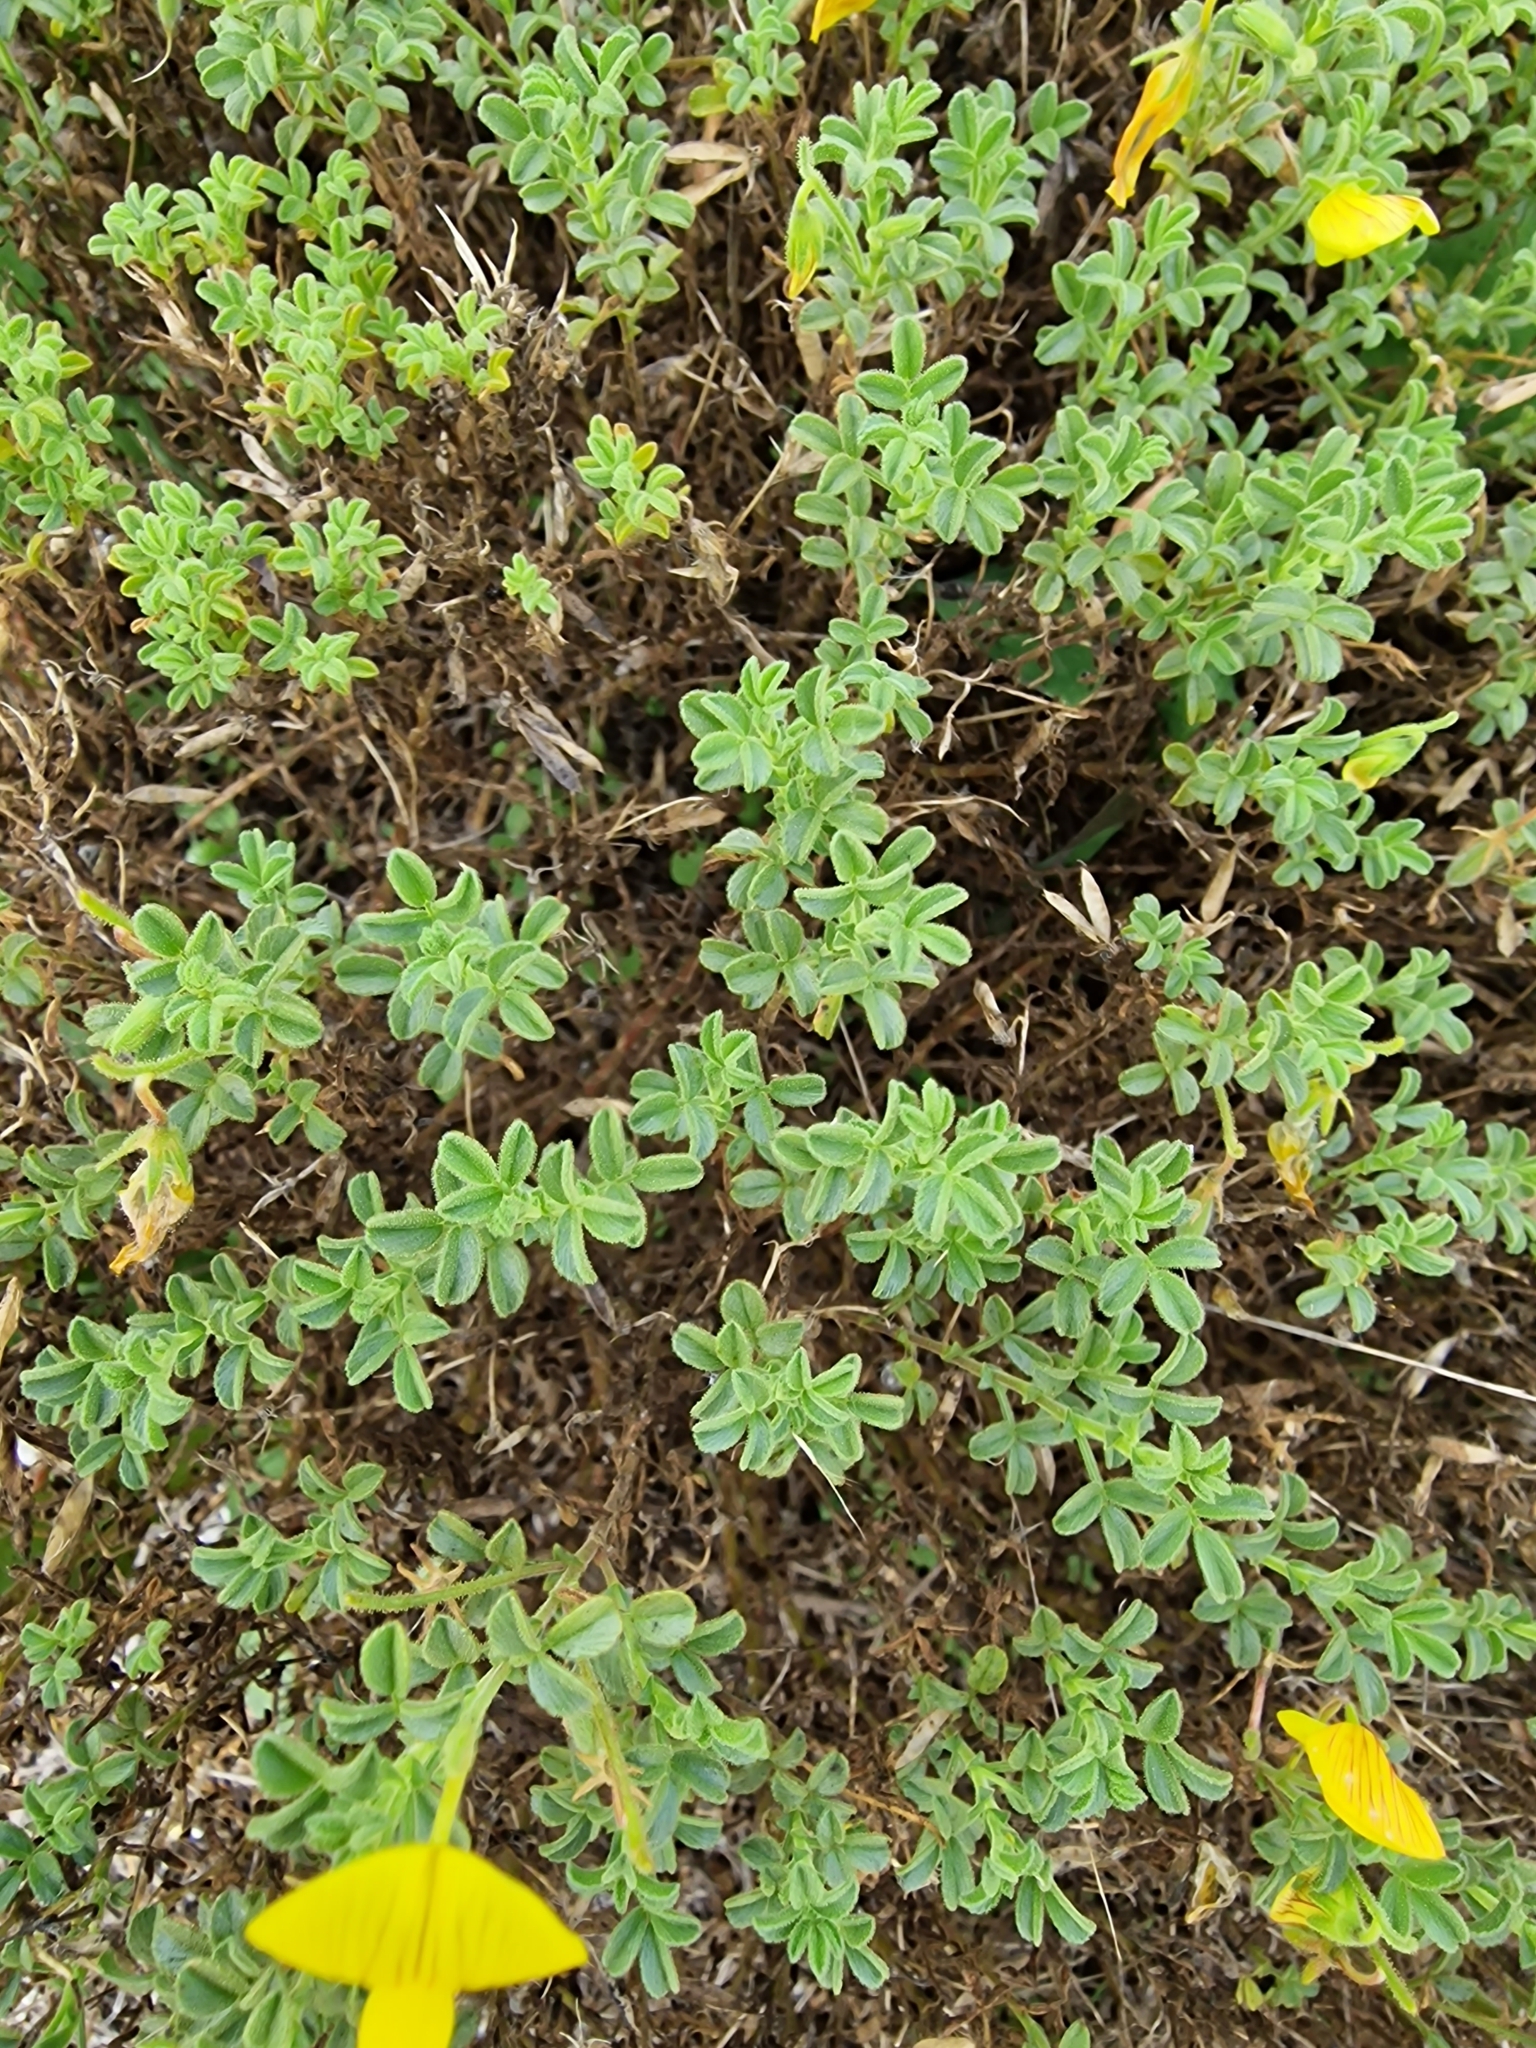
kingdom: Plantae
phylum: Tracheophyta
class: Magnoliopsida
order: Fabales
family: Fabaceae
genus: Ononis
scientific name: Ononis ramosissima
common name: Bush restharrow
